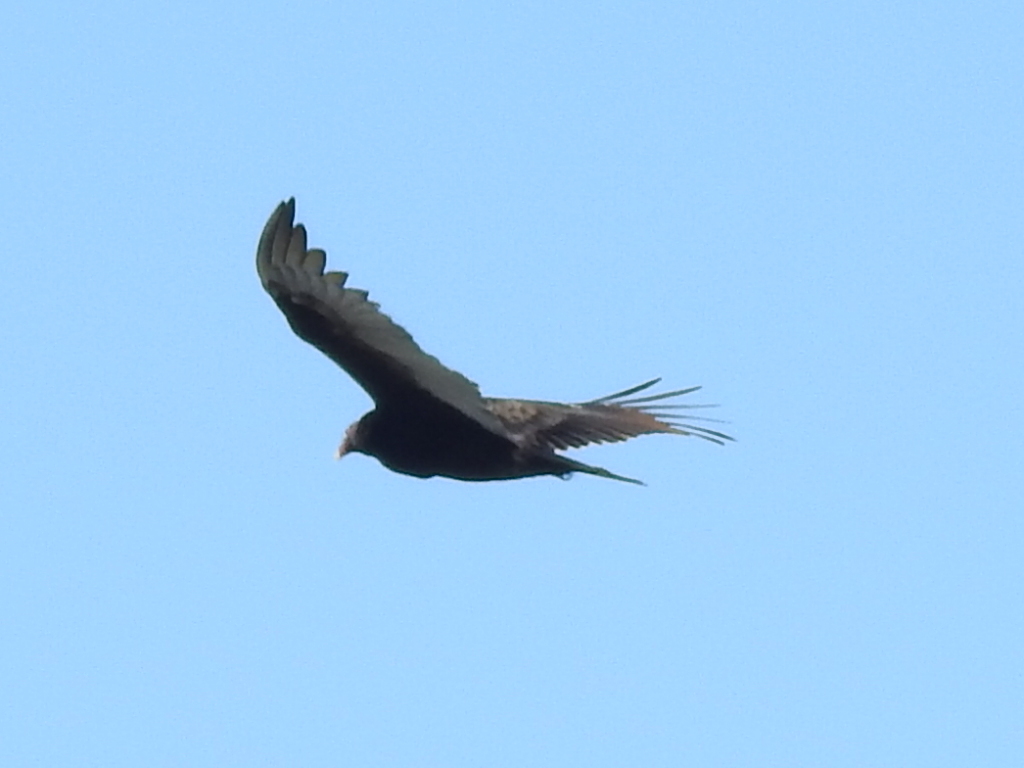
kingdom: Animalia
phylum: Chordata
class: Aves
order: Accipitriformes
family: Cathartidae
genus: Cathartes
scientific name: Cathartes aura
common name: Turkey vulture
